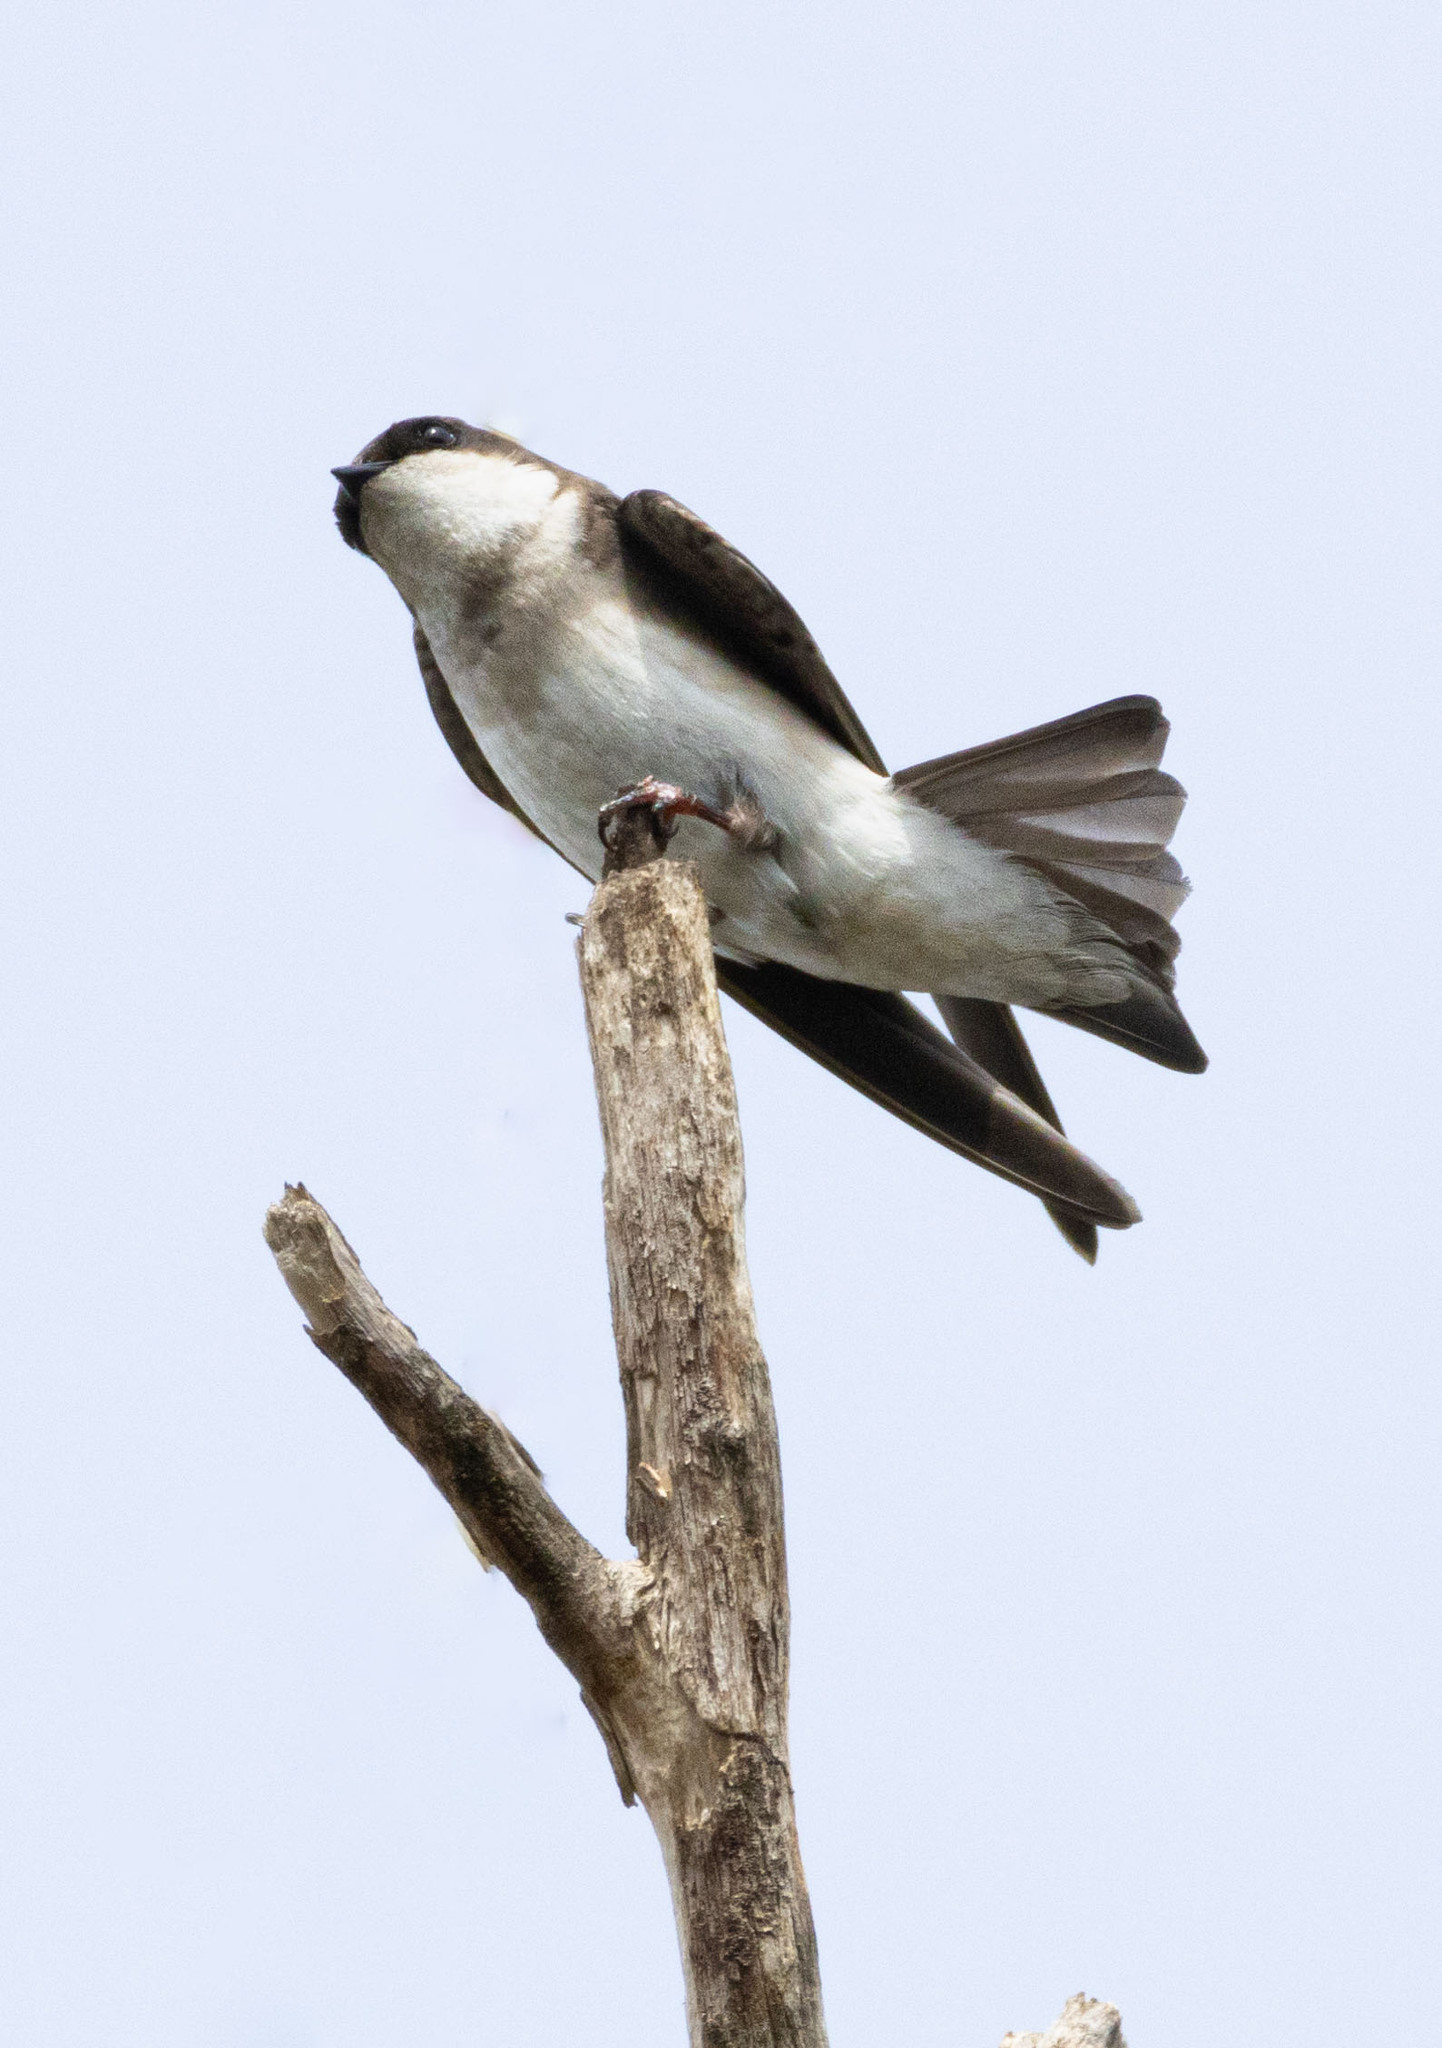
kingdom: Animalia
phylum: Chordata
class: Aves
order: Passeriformes
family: Hirundinidae
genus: Tachycineta
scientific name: Tachycineta bicolor
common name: Tree swallow
